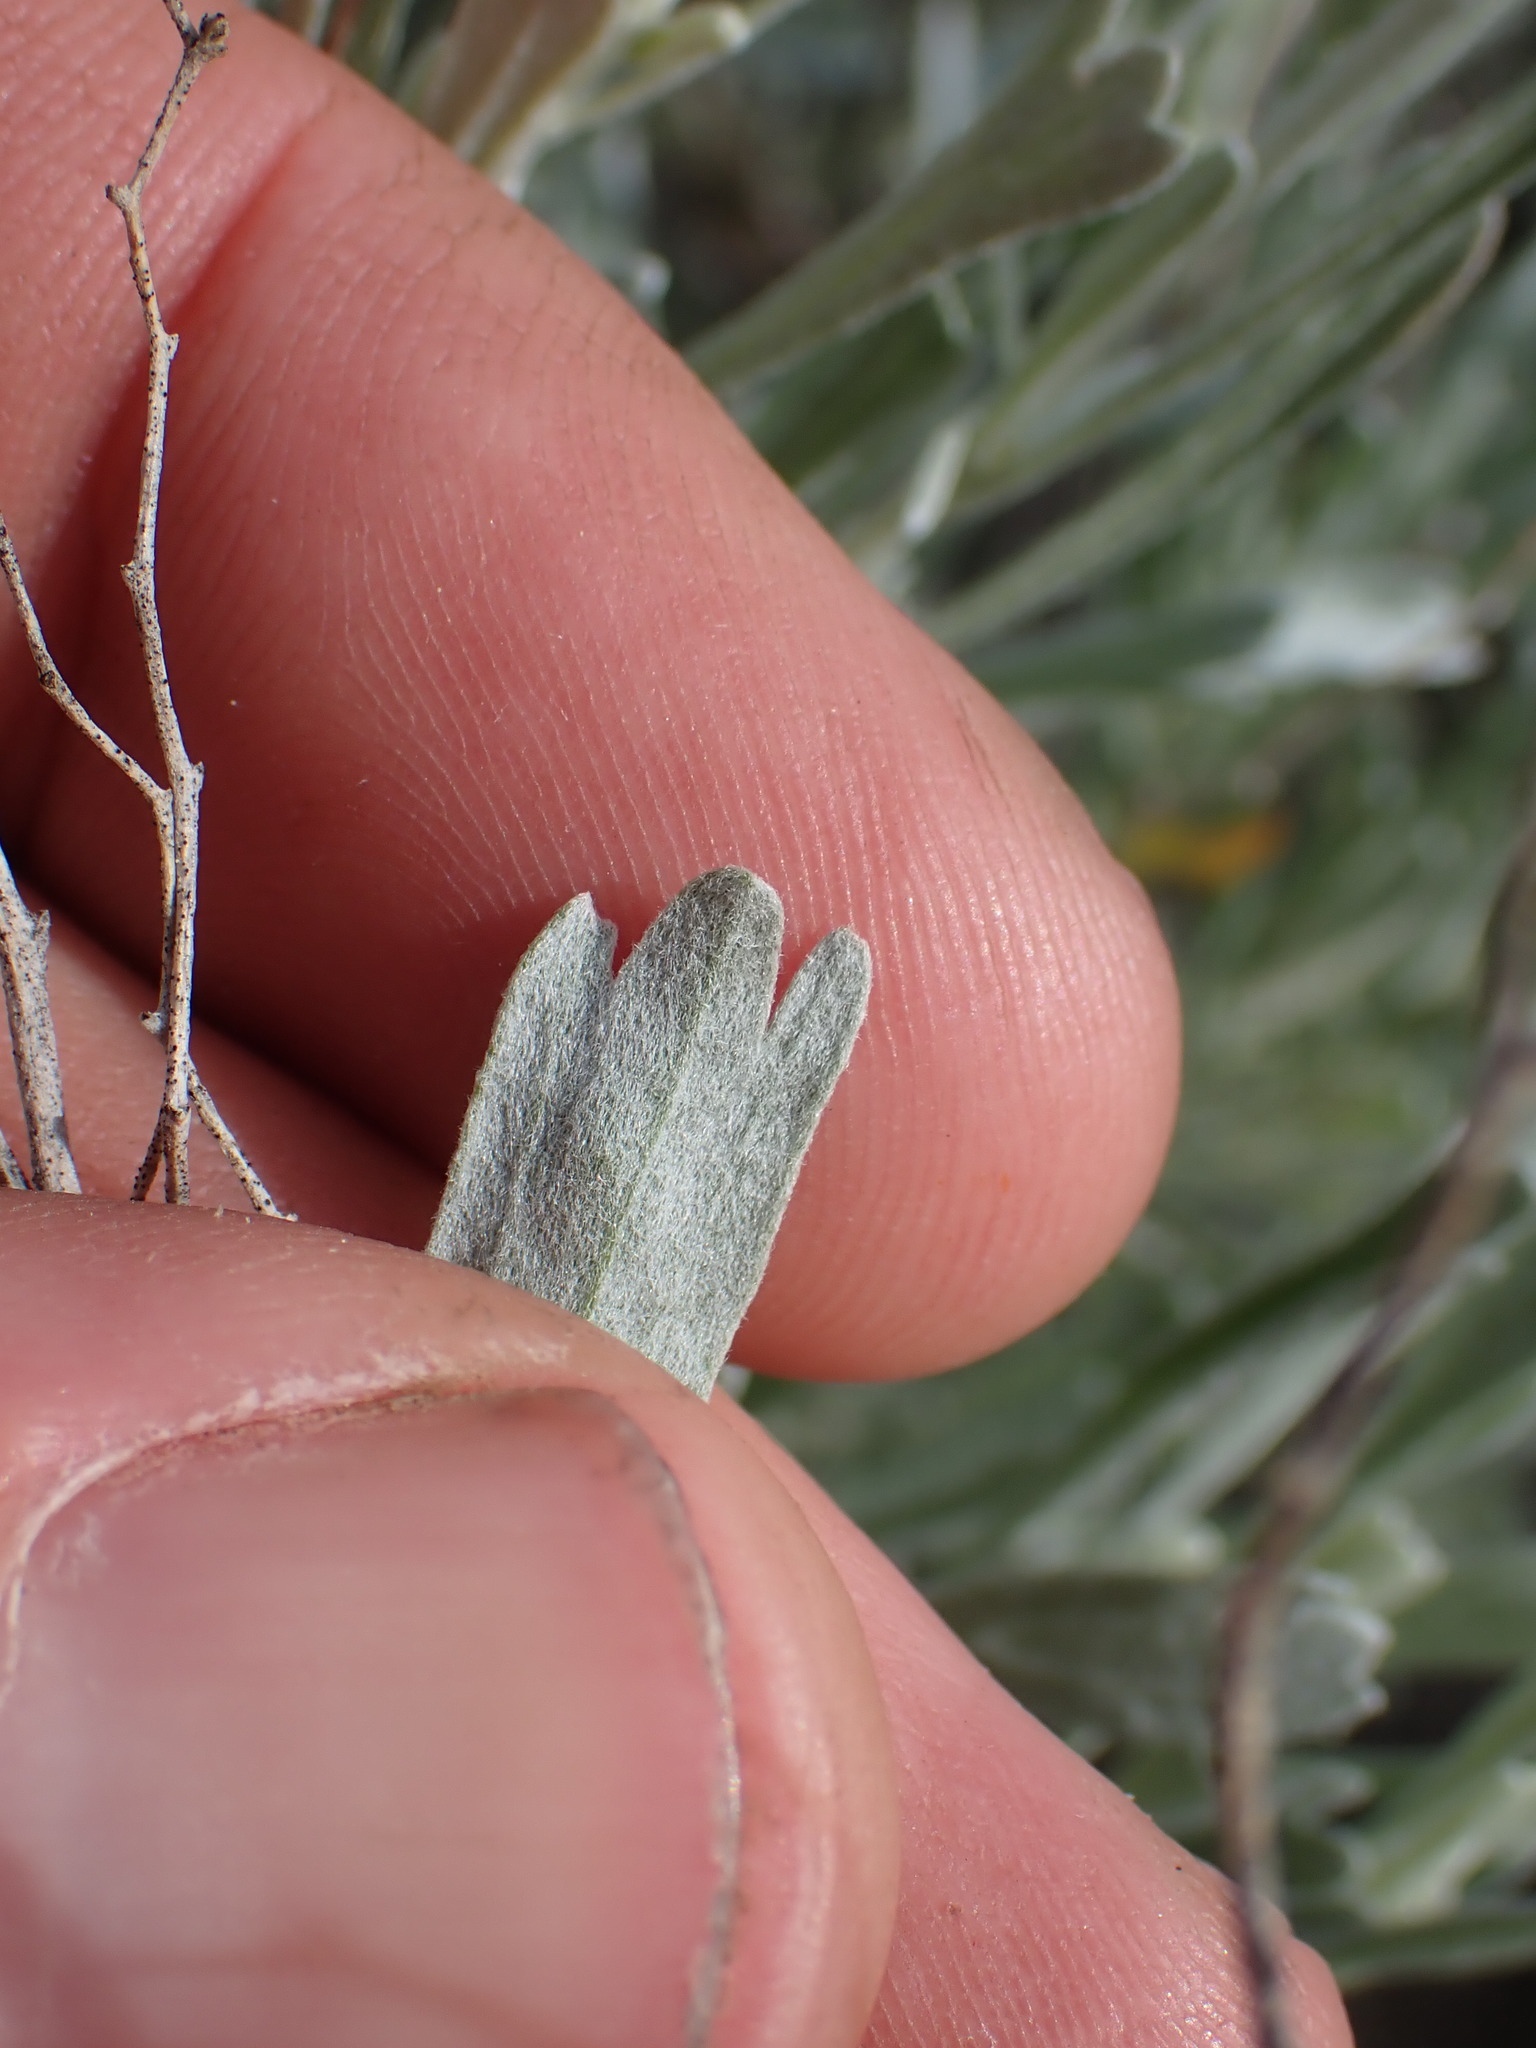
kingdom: Plantae
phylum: Tracheophyta
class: Magnoliopsida
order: Asterales
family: Asteraceae
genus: Artemisia
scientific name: Artemisia tridentata
